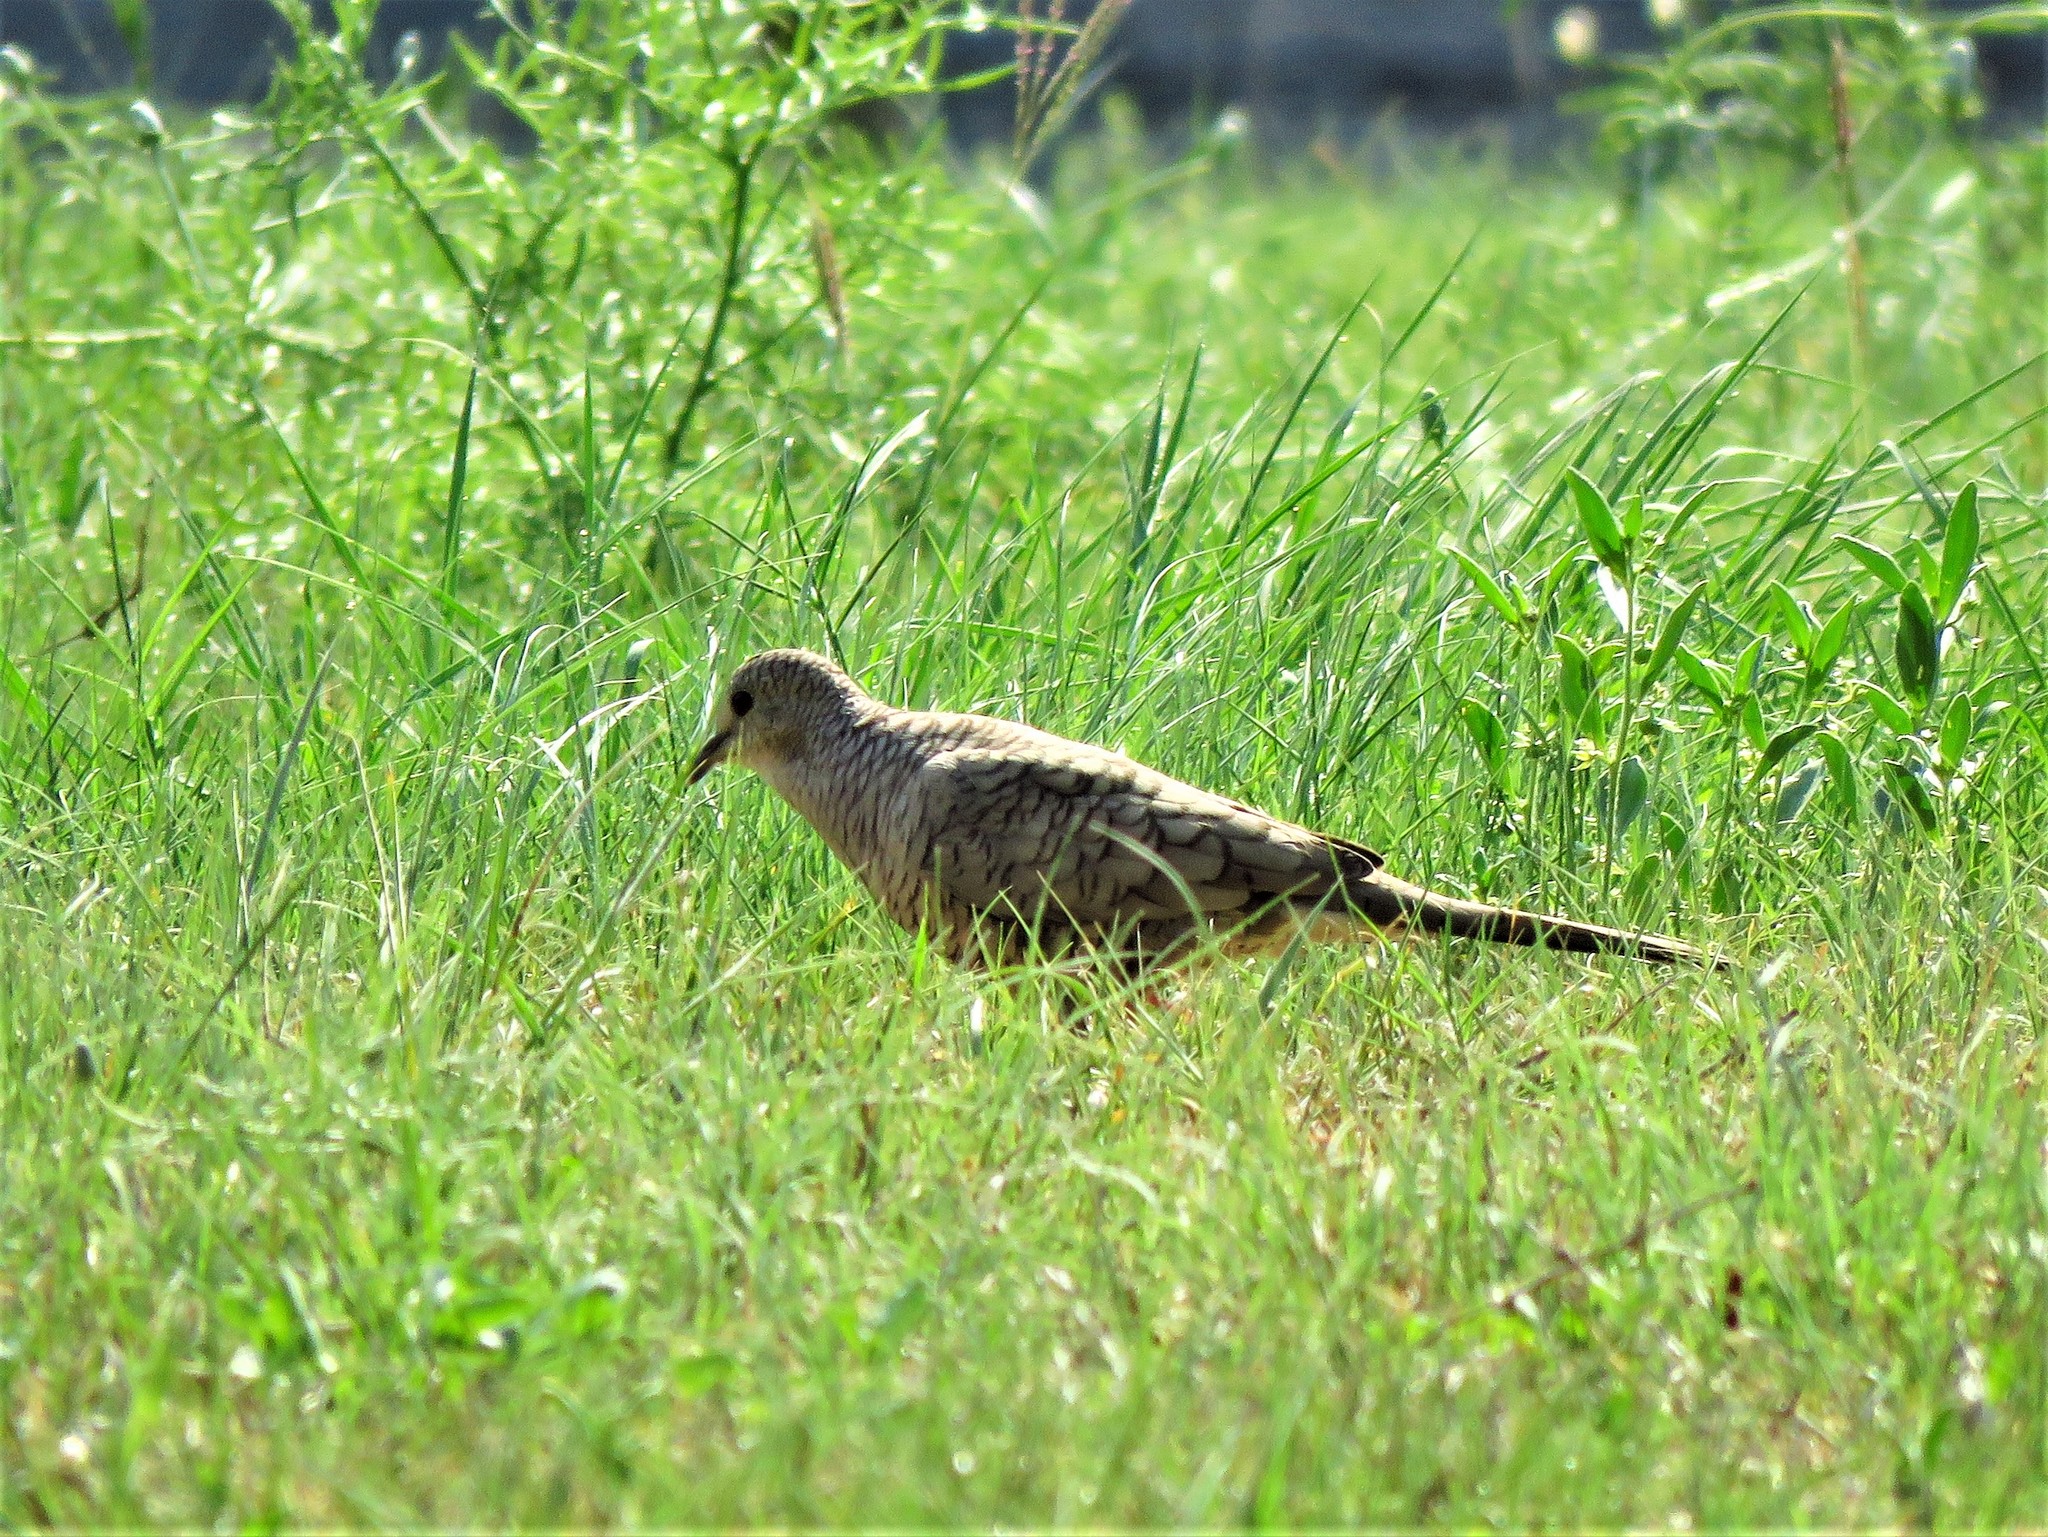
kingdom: Animalia
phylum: Chordata
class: Aves
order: Columbiformes
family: Columbidae
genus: Columbina
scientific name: Columbina inca
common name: Inca dove
